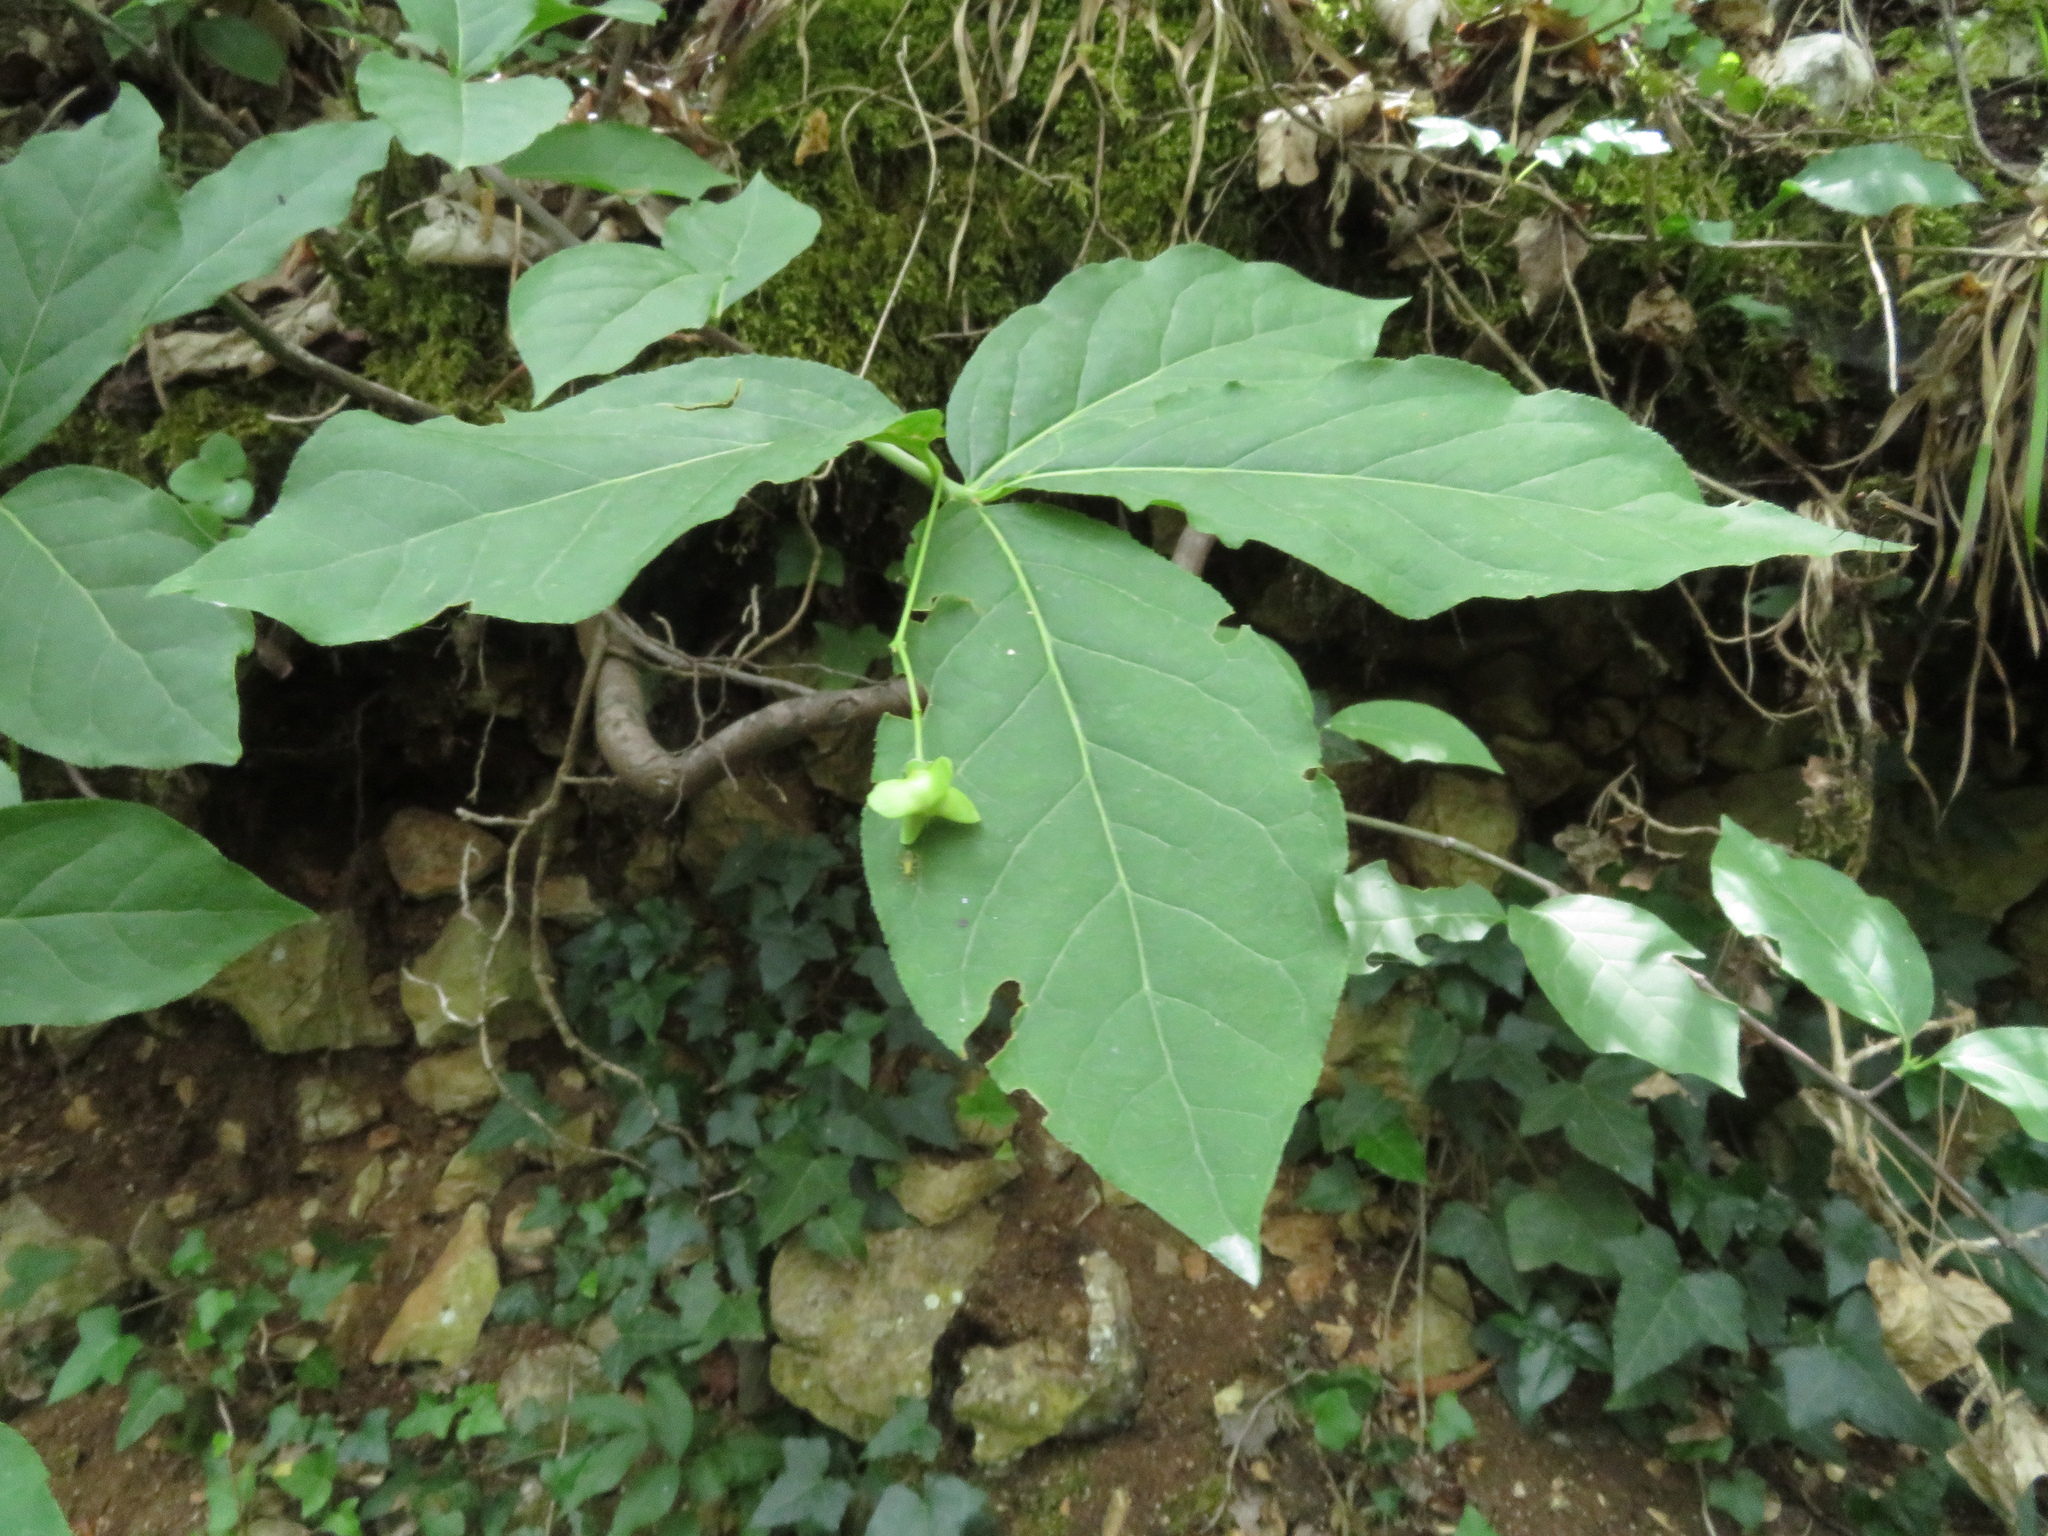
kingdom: Plantae
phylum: Tracheophyta
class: Magnoliopsida
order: Celastrales
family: Celastraceae
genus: Euonymus
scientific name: Euonymus latifolius
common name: Large-leaved spindle
